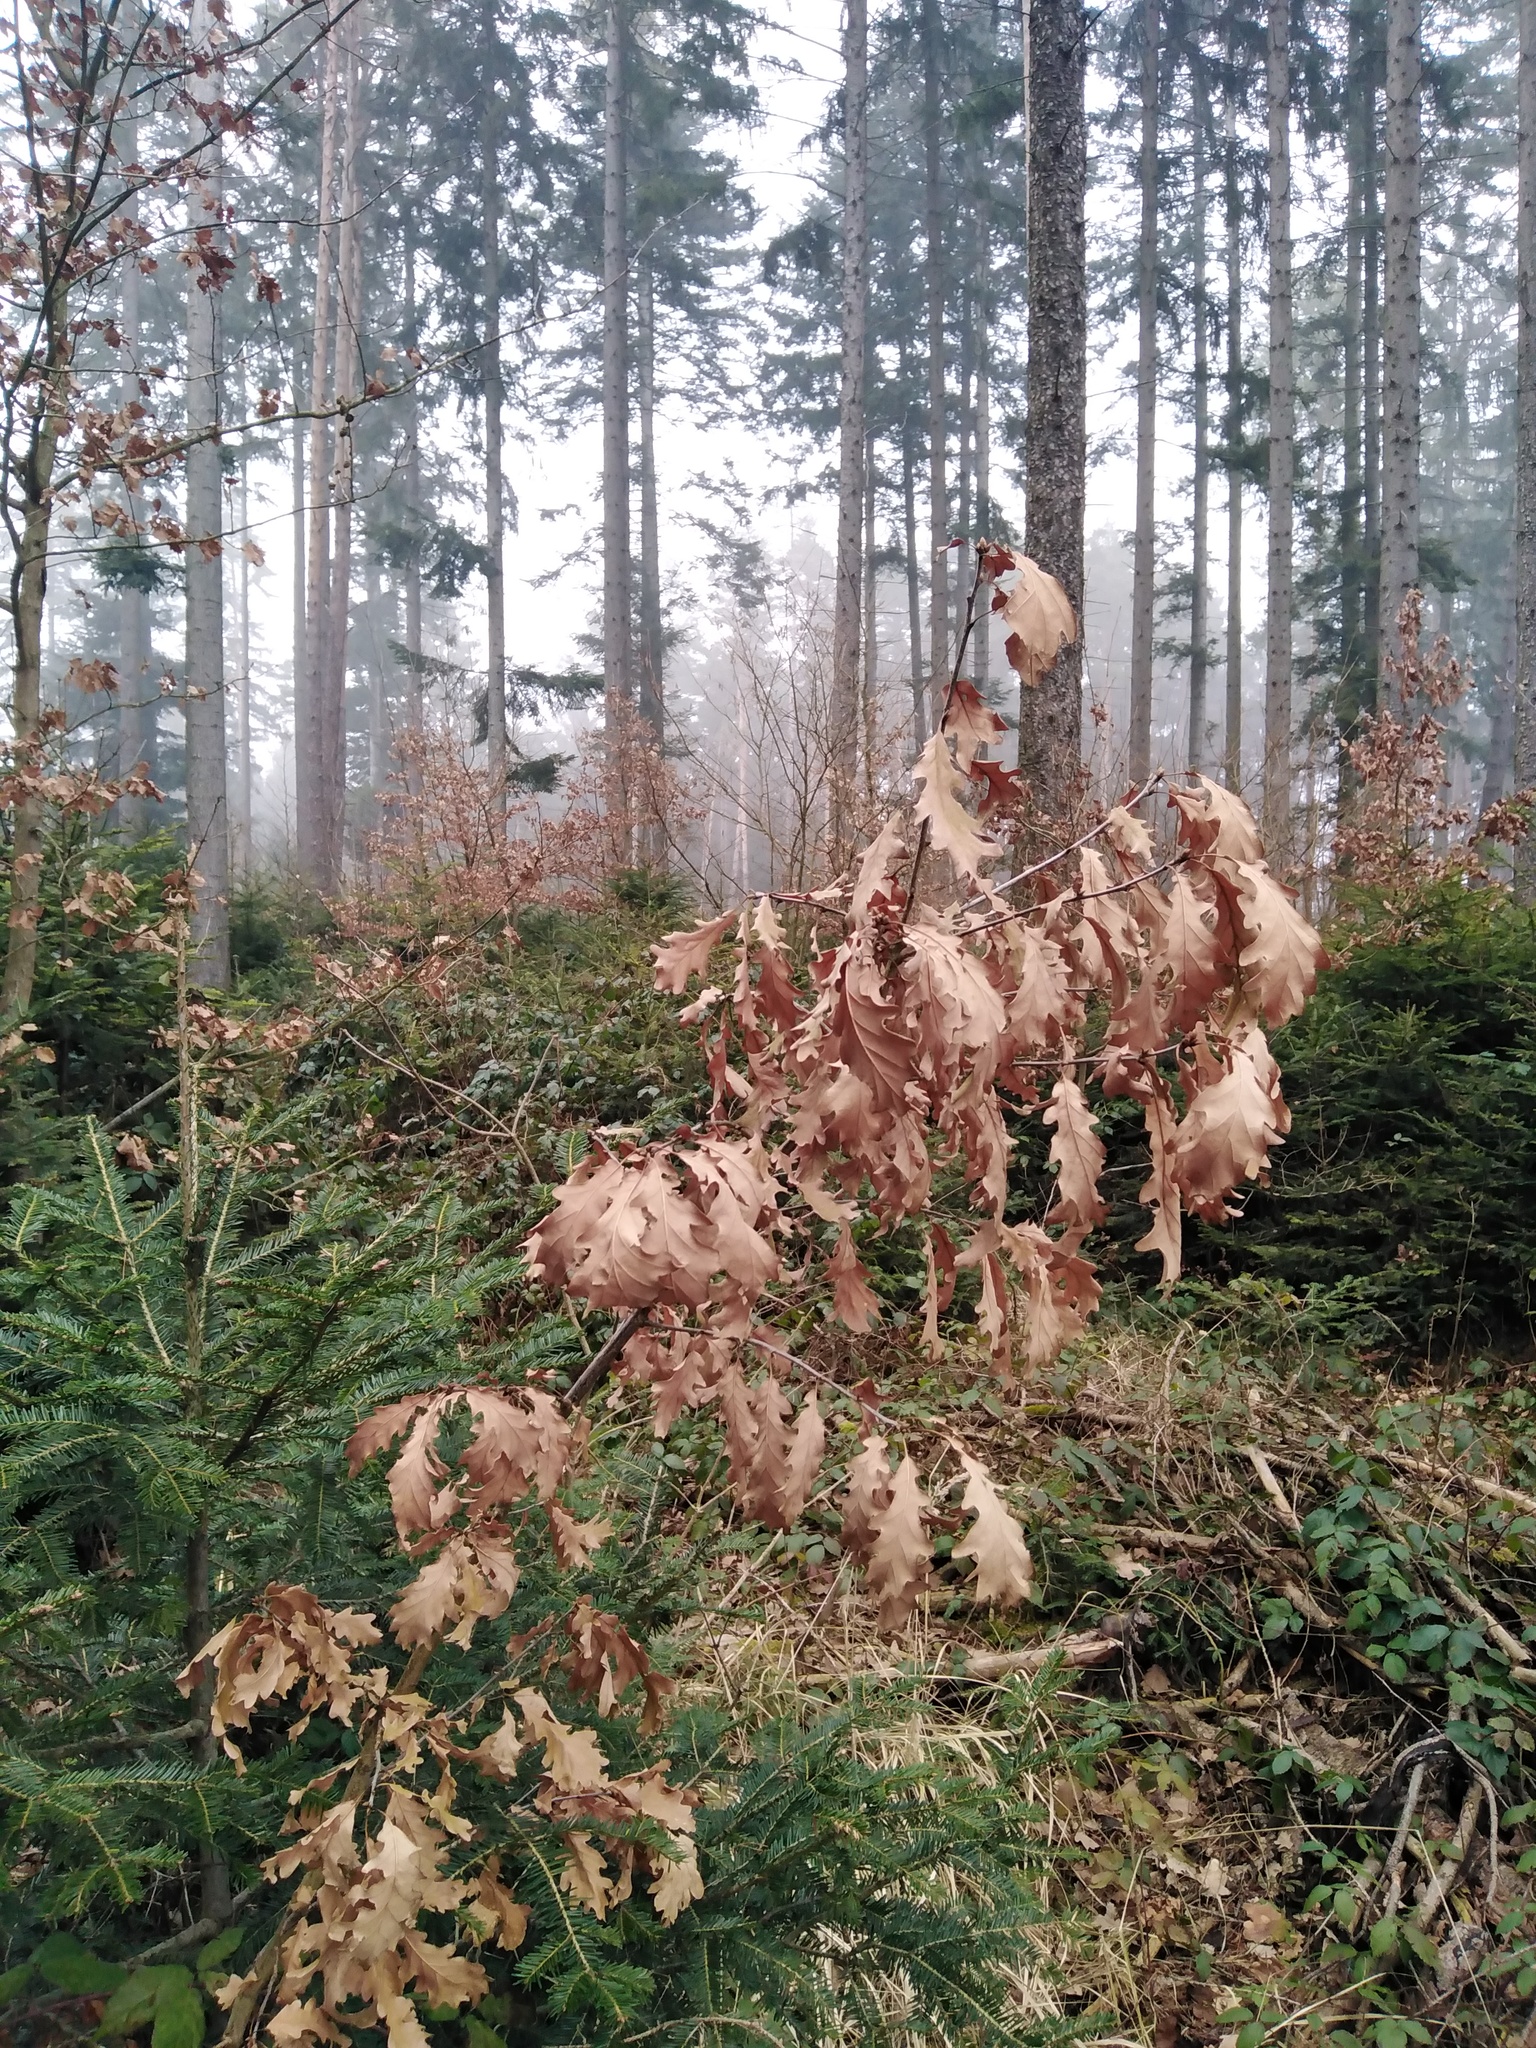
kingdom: Plantae
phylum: Tracheophyta
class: Magnoliopsida
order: Fagales
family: Fagaceae
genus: Quercus
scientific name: Quercus petraea
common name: Sessile oak
